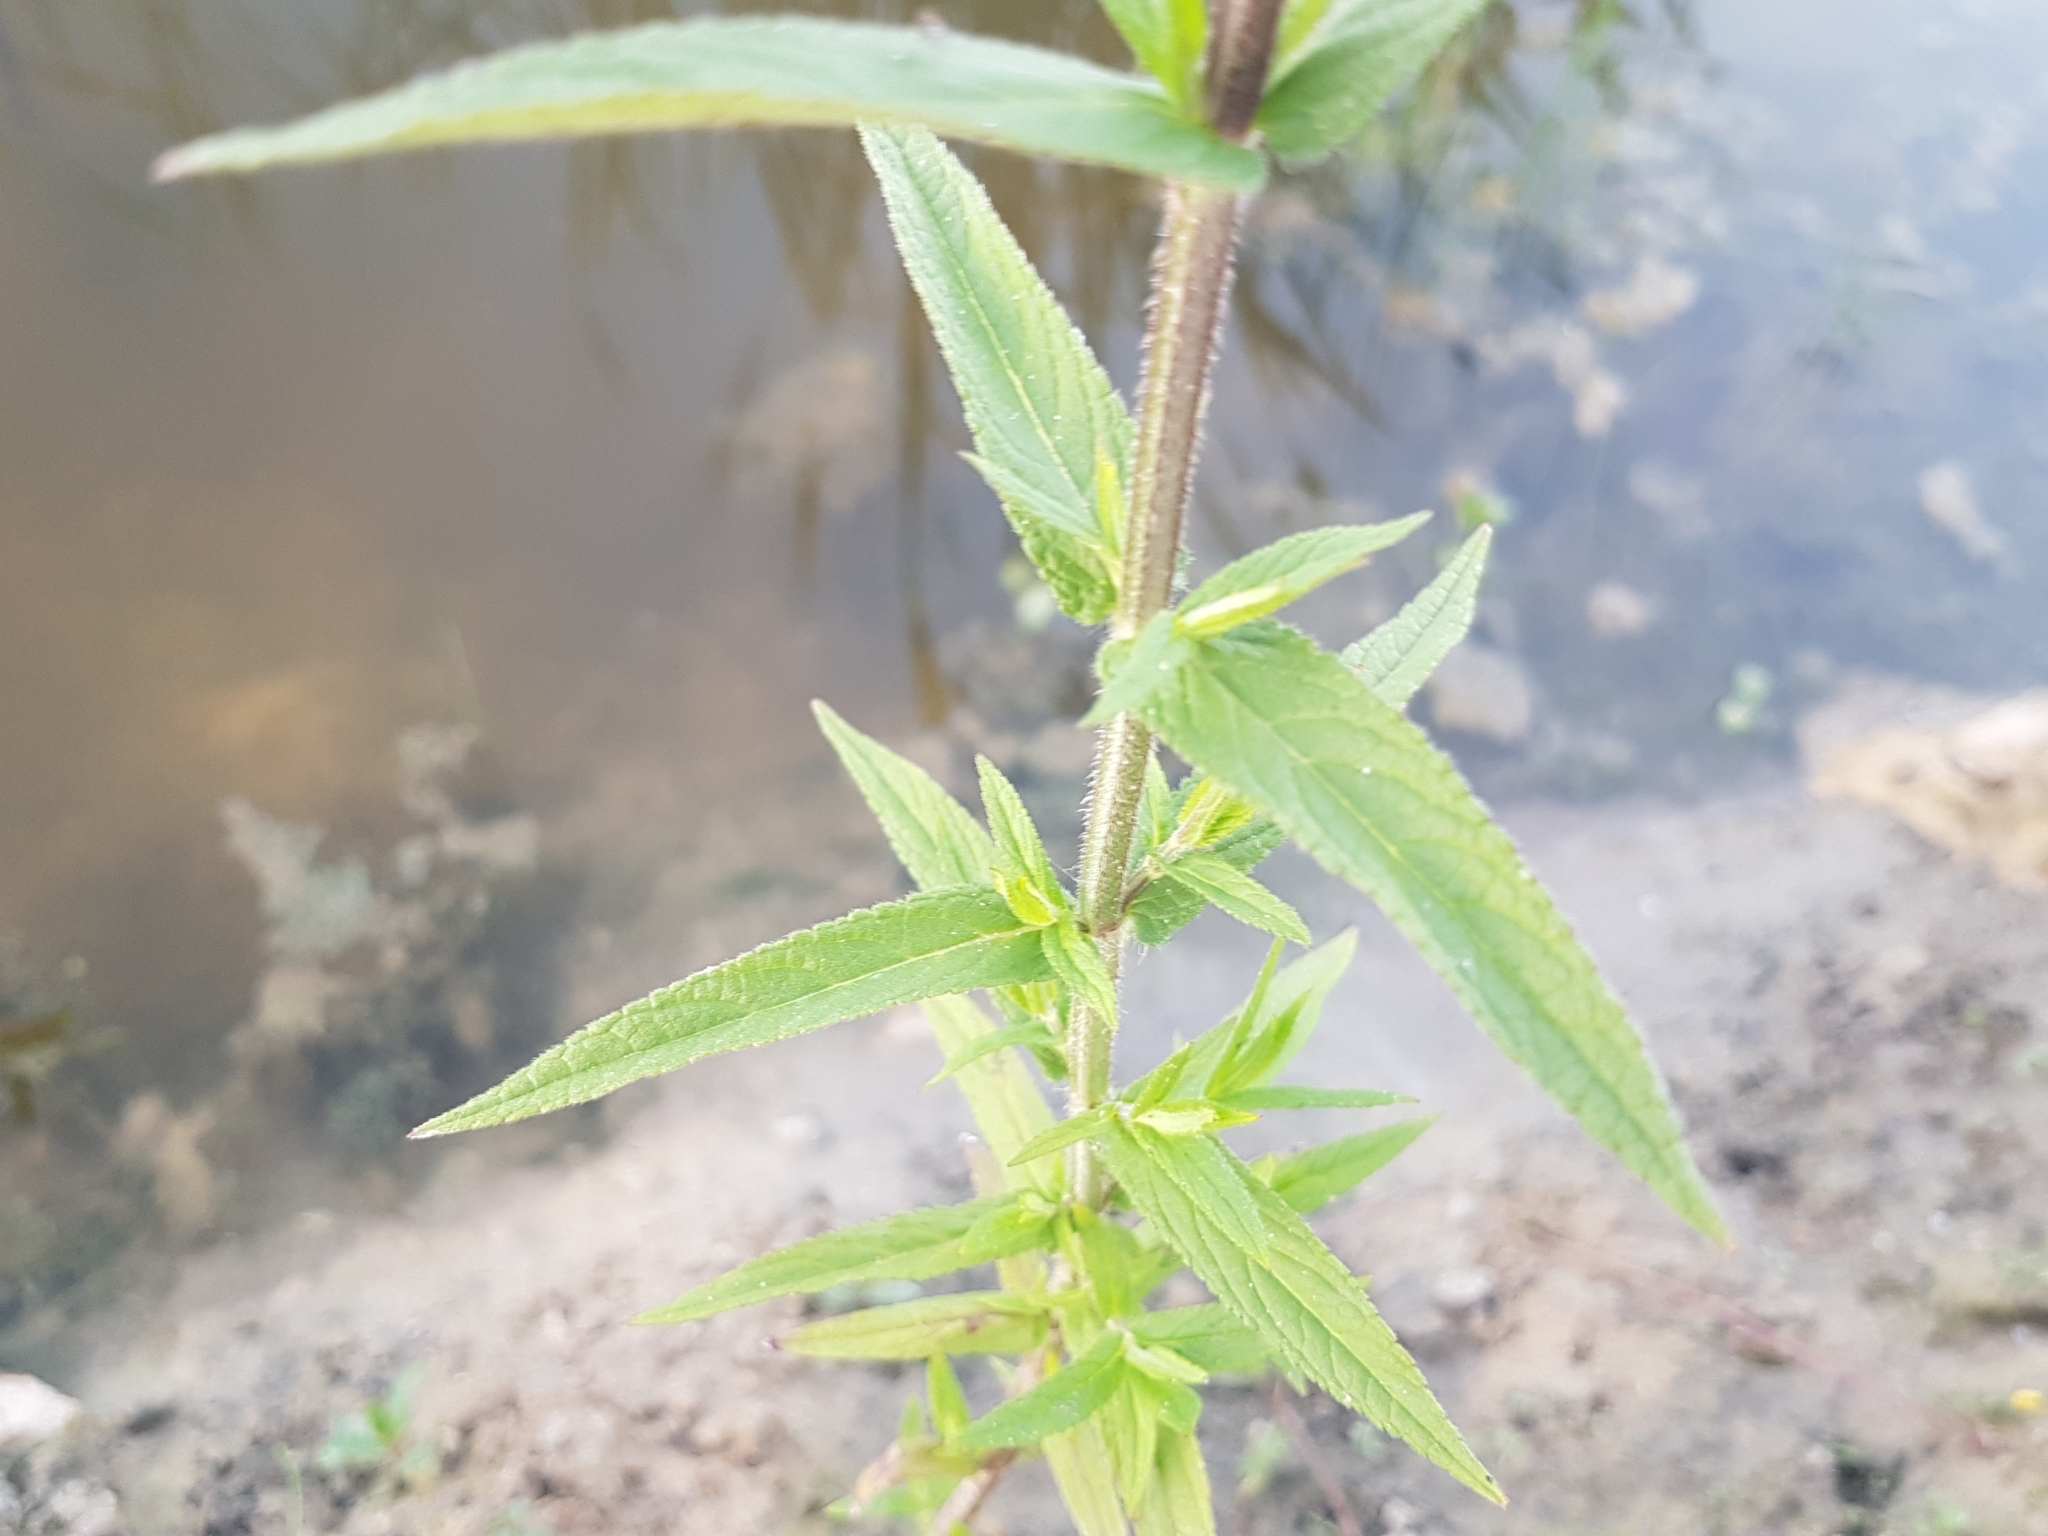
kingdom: Plantae
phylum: Tracheophyta
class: Magnoliopsida
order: Lamiales
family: Lamiaceae
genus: Stachys
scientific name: Stachys palustris
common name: Marsh woundwort
